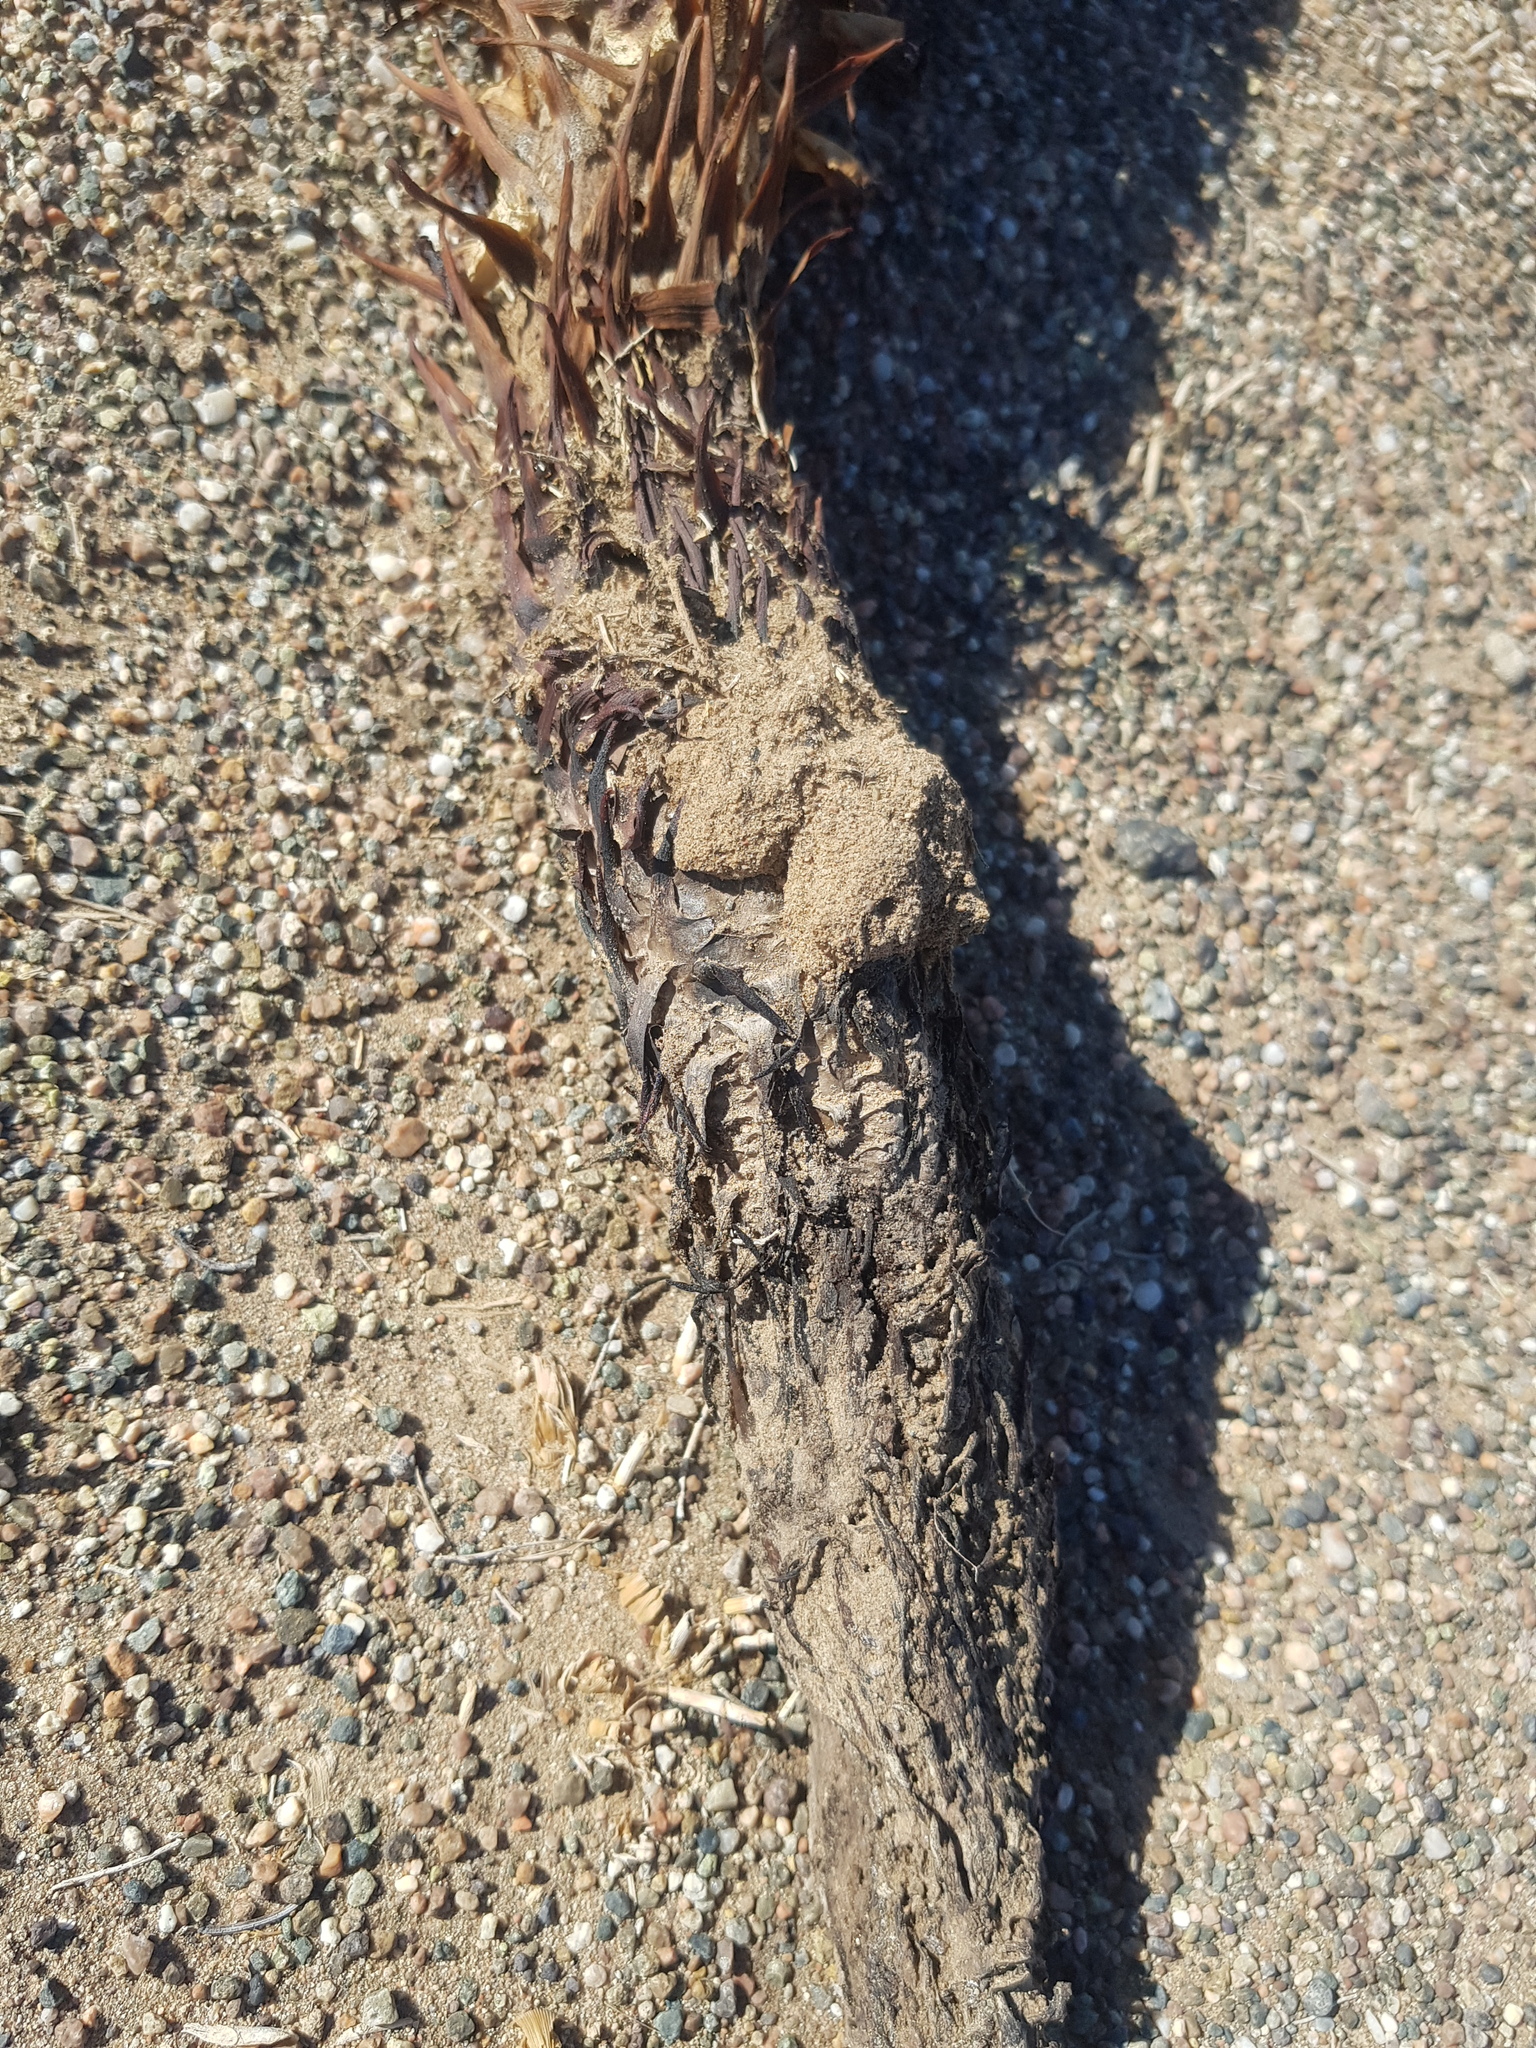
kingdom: Plantae
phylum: Tracheophyta
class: Magnoliopsida
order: Lamiales
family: Orobanchaceae
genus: Cistanche
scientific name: Cistanche deserticola
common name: Desert-broomrape
